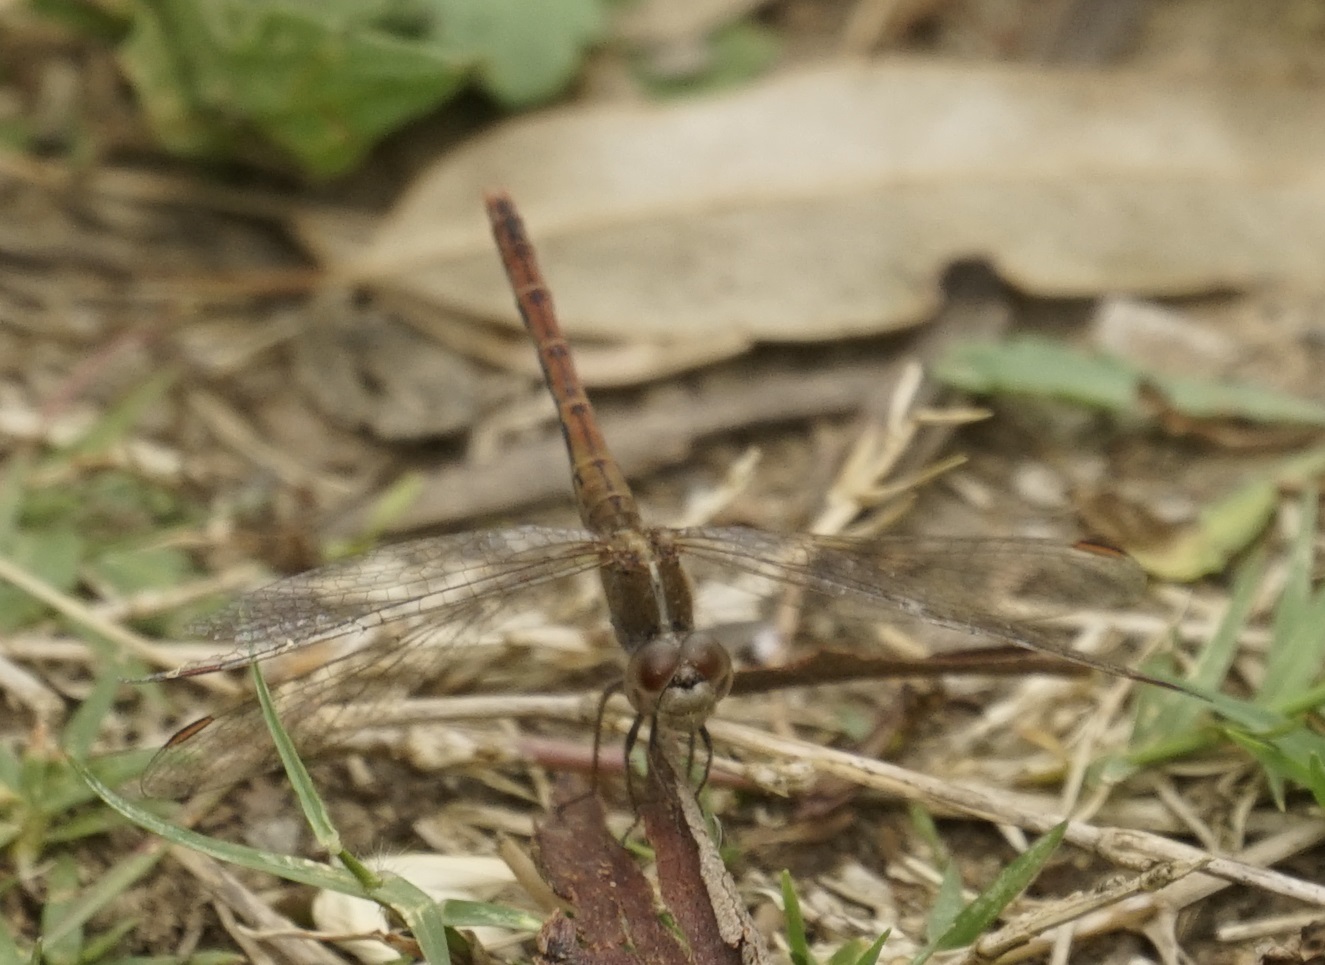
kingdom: Animalia
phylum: Arthropoda
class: Insecta
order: Odonata
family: Libellulidae
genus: Diplacodes
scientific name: Diplacodes bipunctata
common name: Red percher dragonfly
